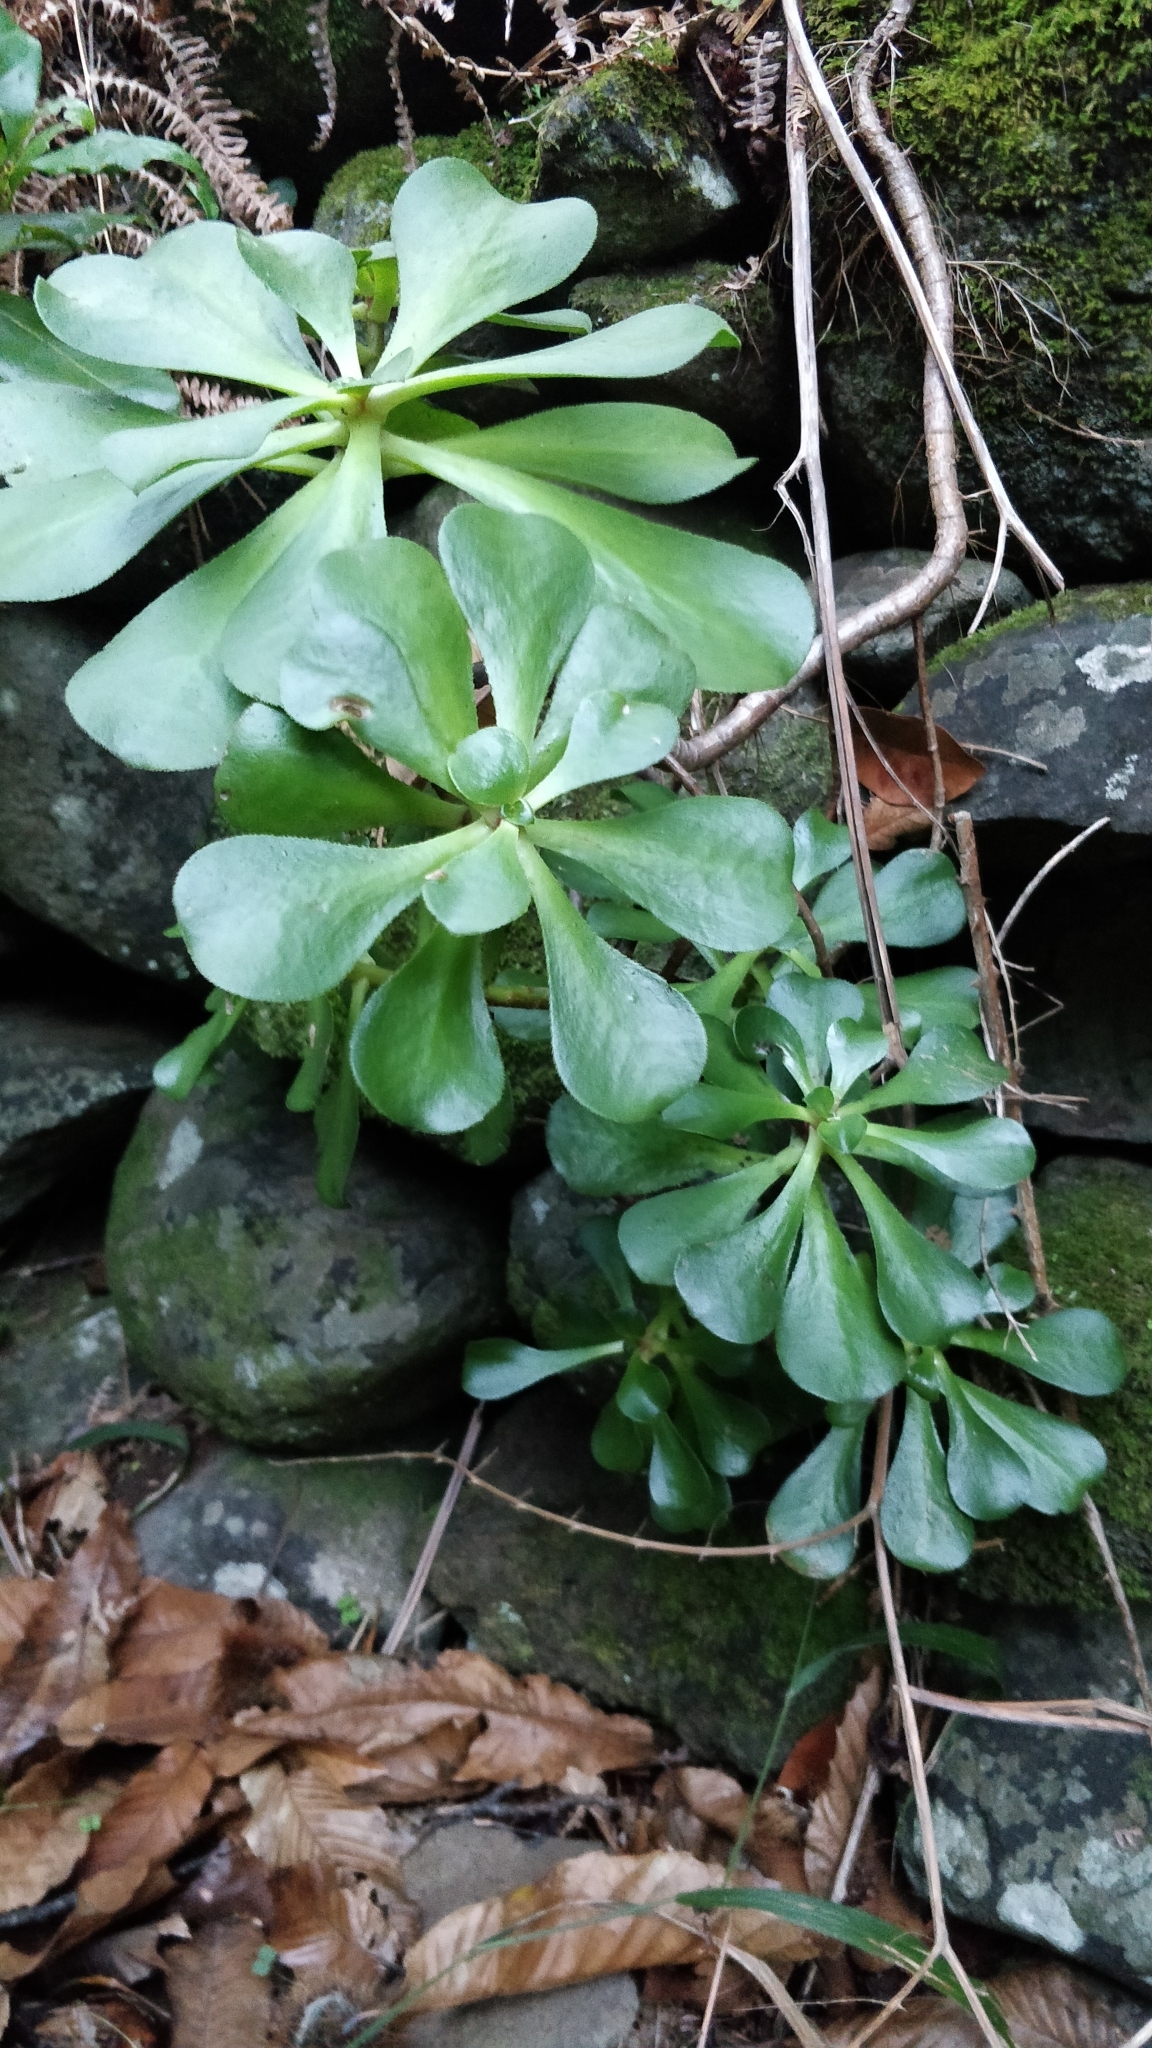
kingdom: Plantae
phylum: Tracheophyta
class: Magnoliopsida
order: Saxifragales
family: Crassulaceae
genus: Aeonium
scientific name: Aeonium glutinosum
